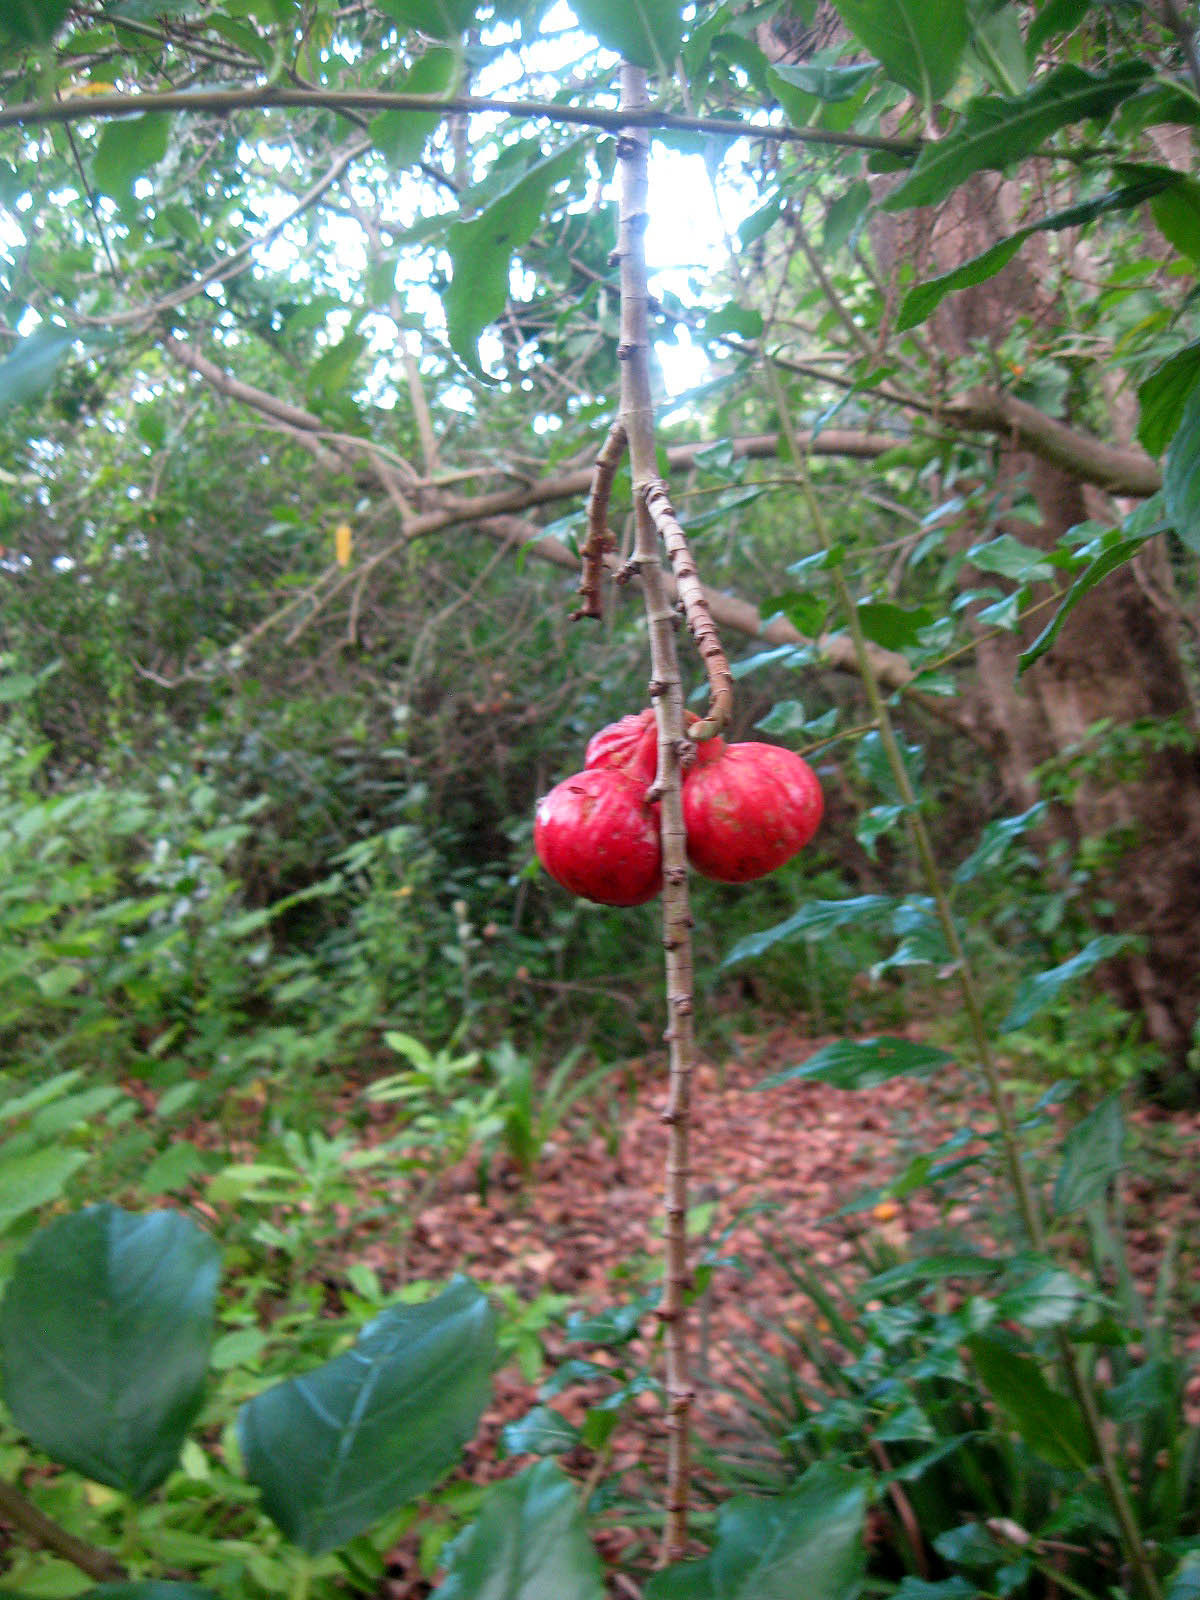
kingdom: Plantae
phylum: Tracheophyta
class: Magnoliopsida
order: Rosales
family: Moraceae
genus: Ficus
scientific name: Ficus sur
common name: Cape fig
